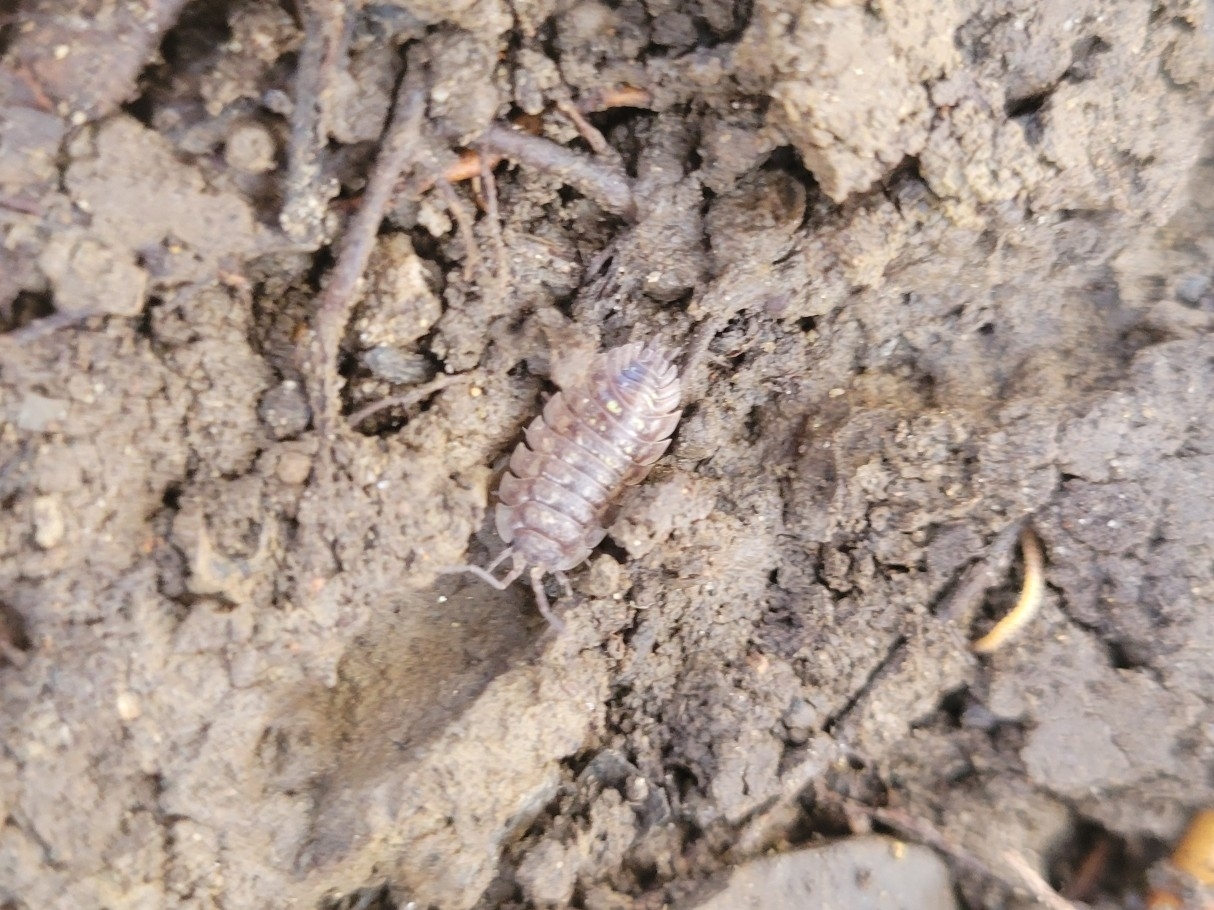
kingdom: Animalia
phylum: Arthropoda
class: Malacostraca
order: Isopoda
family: Oniscidae
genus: Oniscus
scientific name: Oniscus asellus
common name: Common shiny woodlouse
